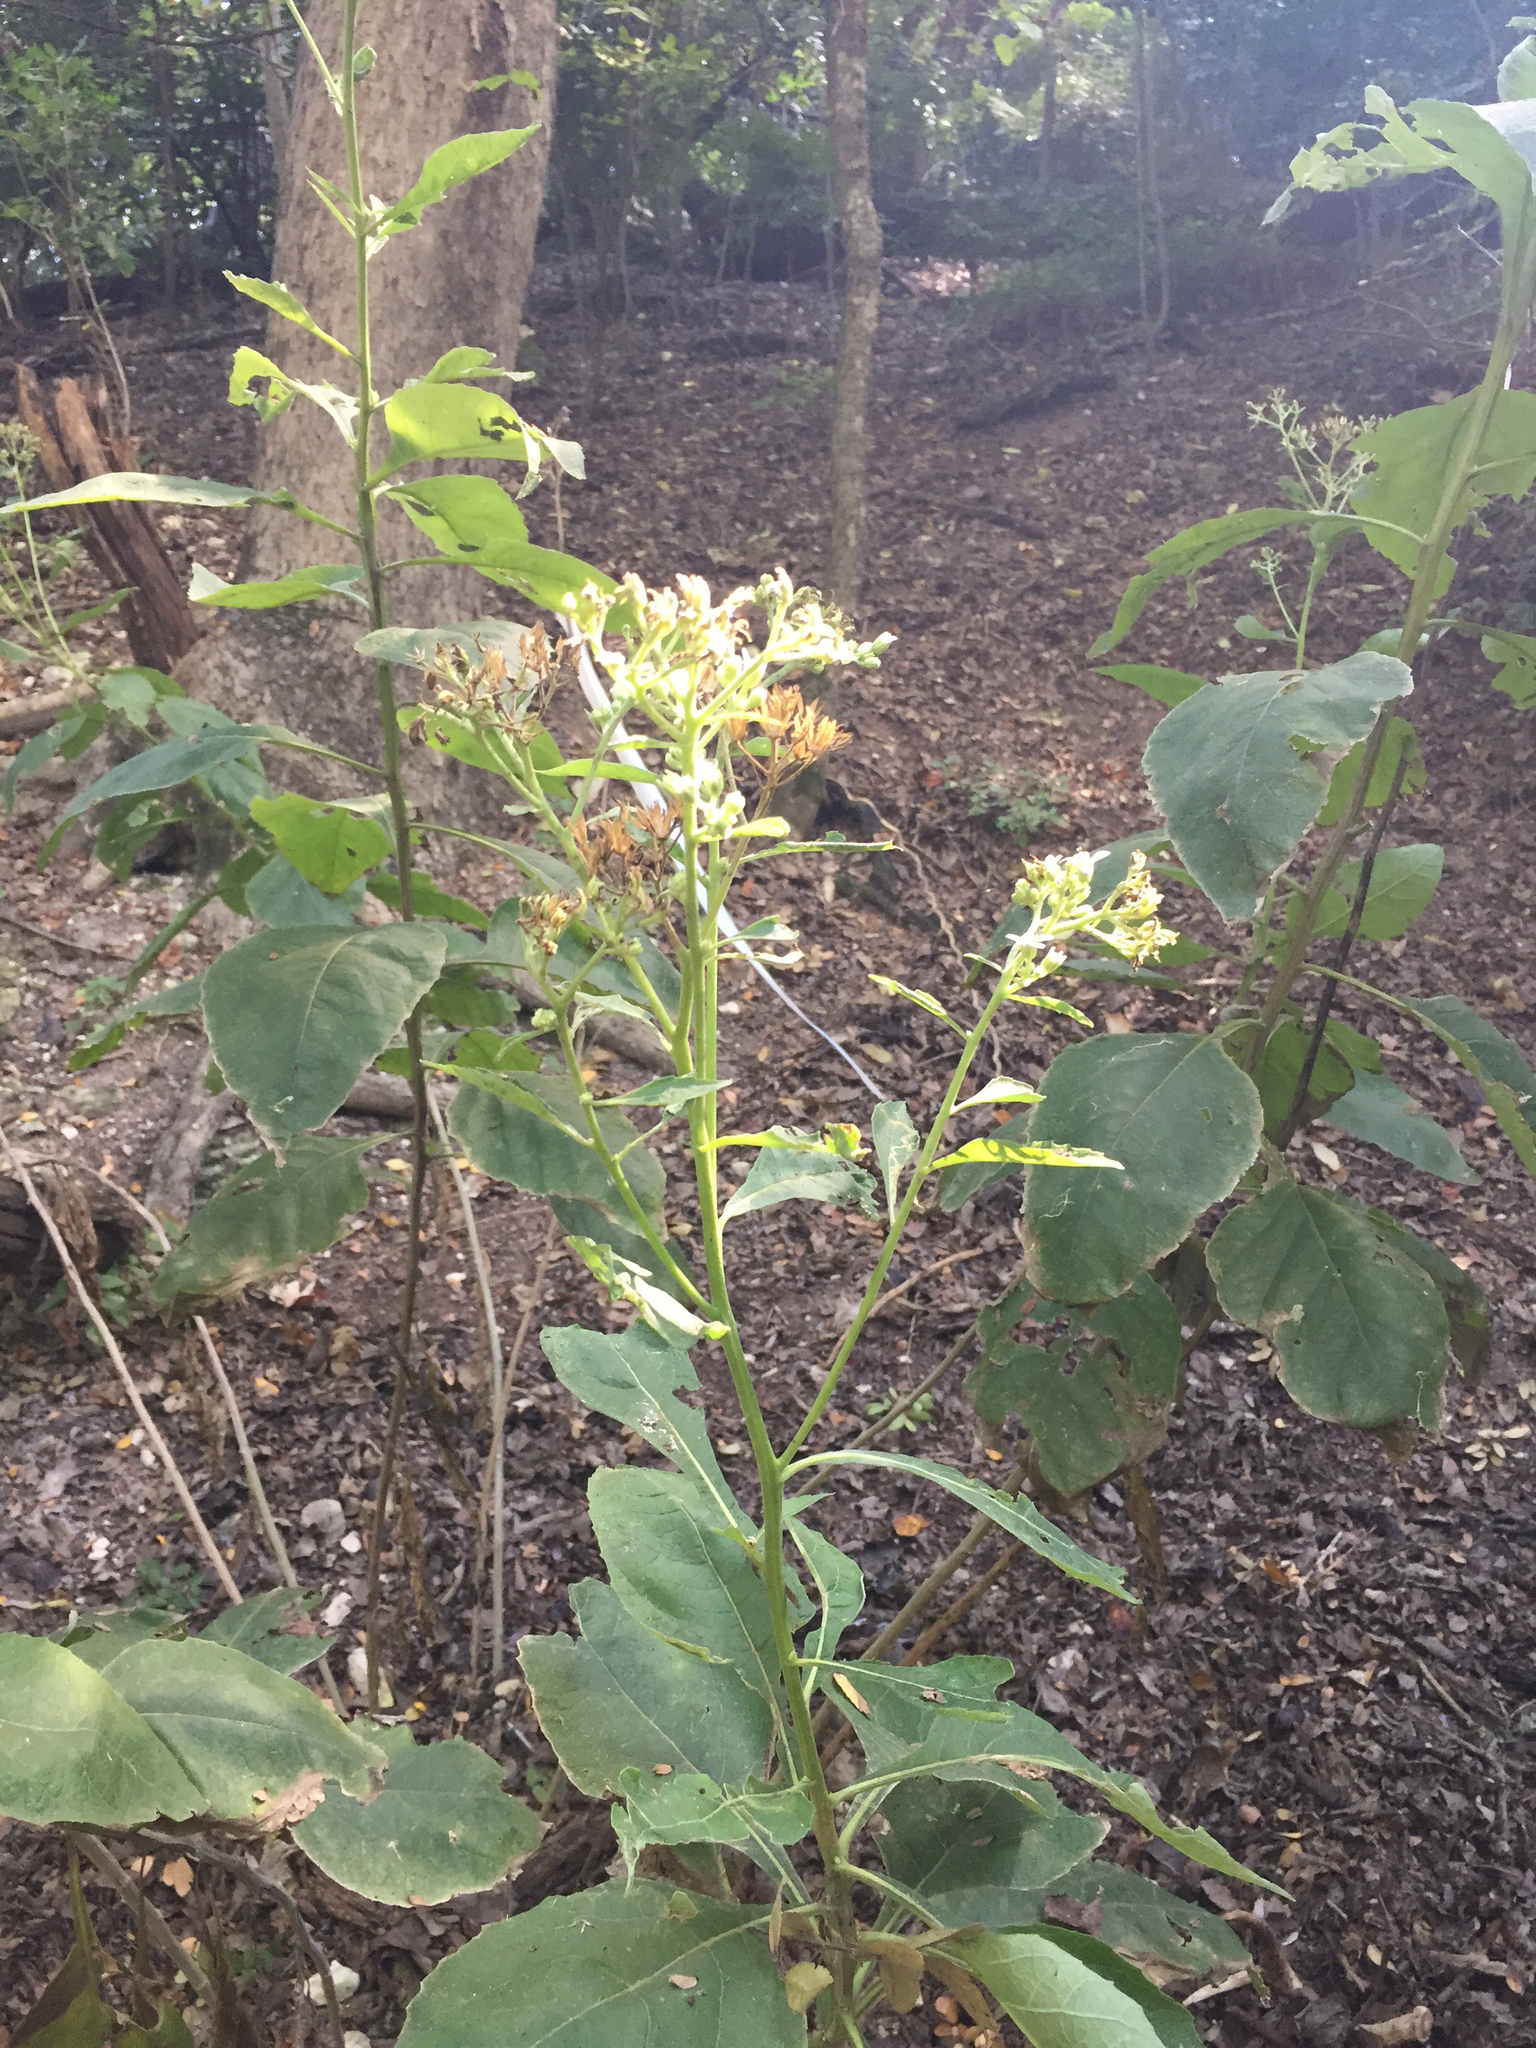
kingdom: Plantae
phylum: Tracheophyta
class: Magnoliopsida
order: Asterales
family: Asteraceae
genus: Verbesina
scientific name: Verbesina virginica
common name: Frostweed
